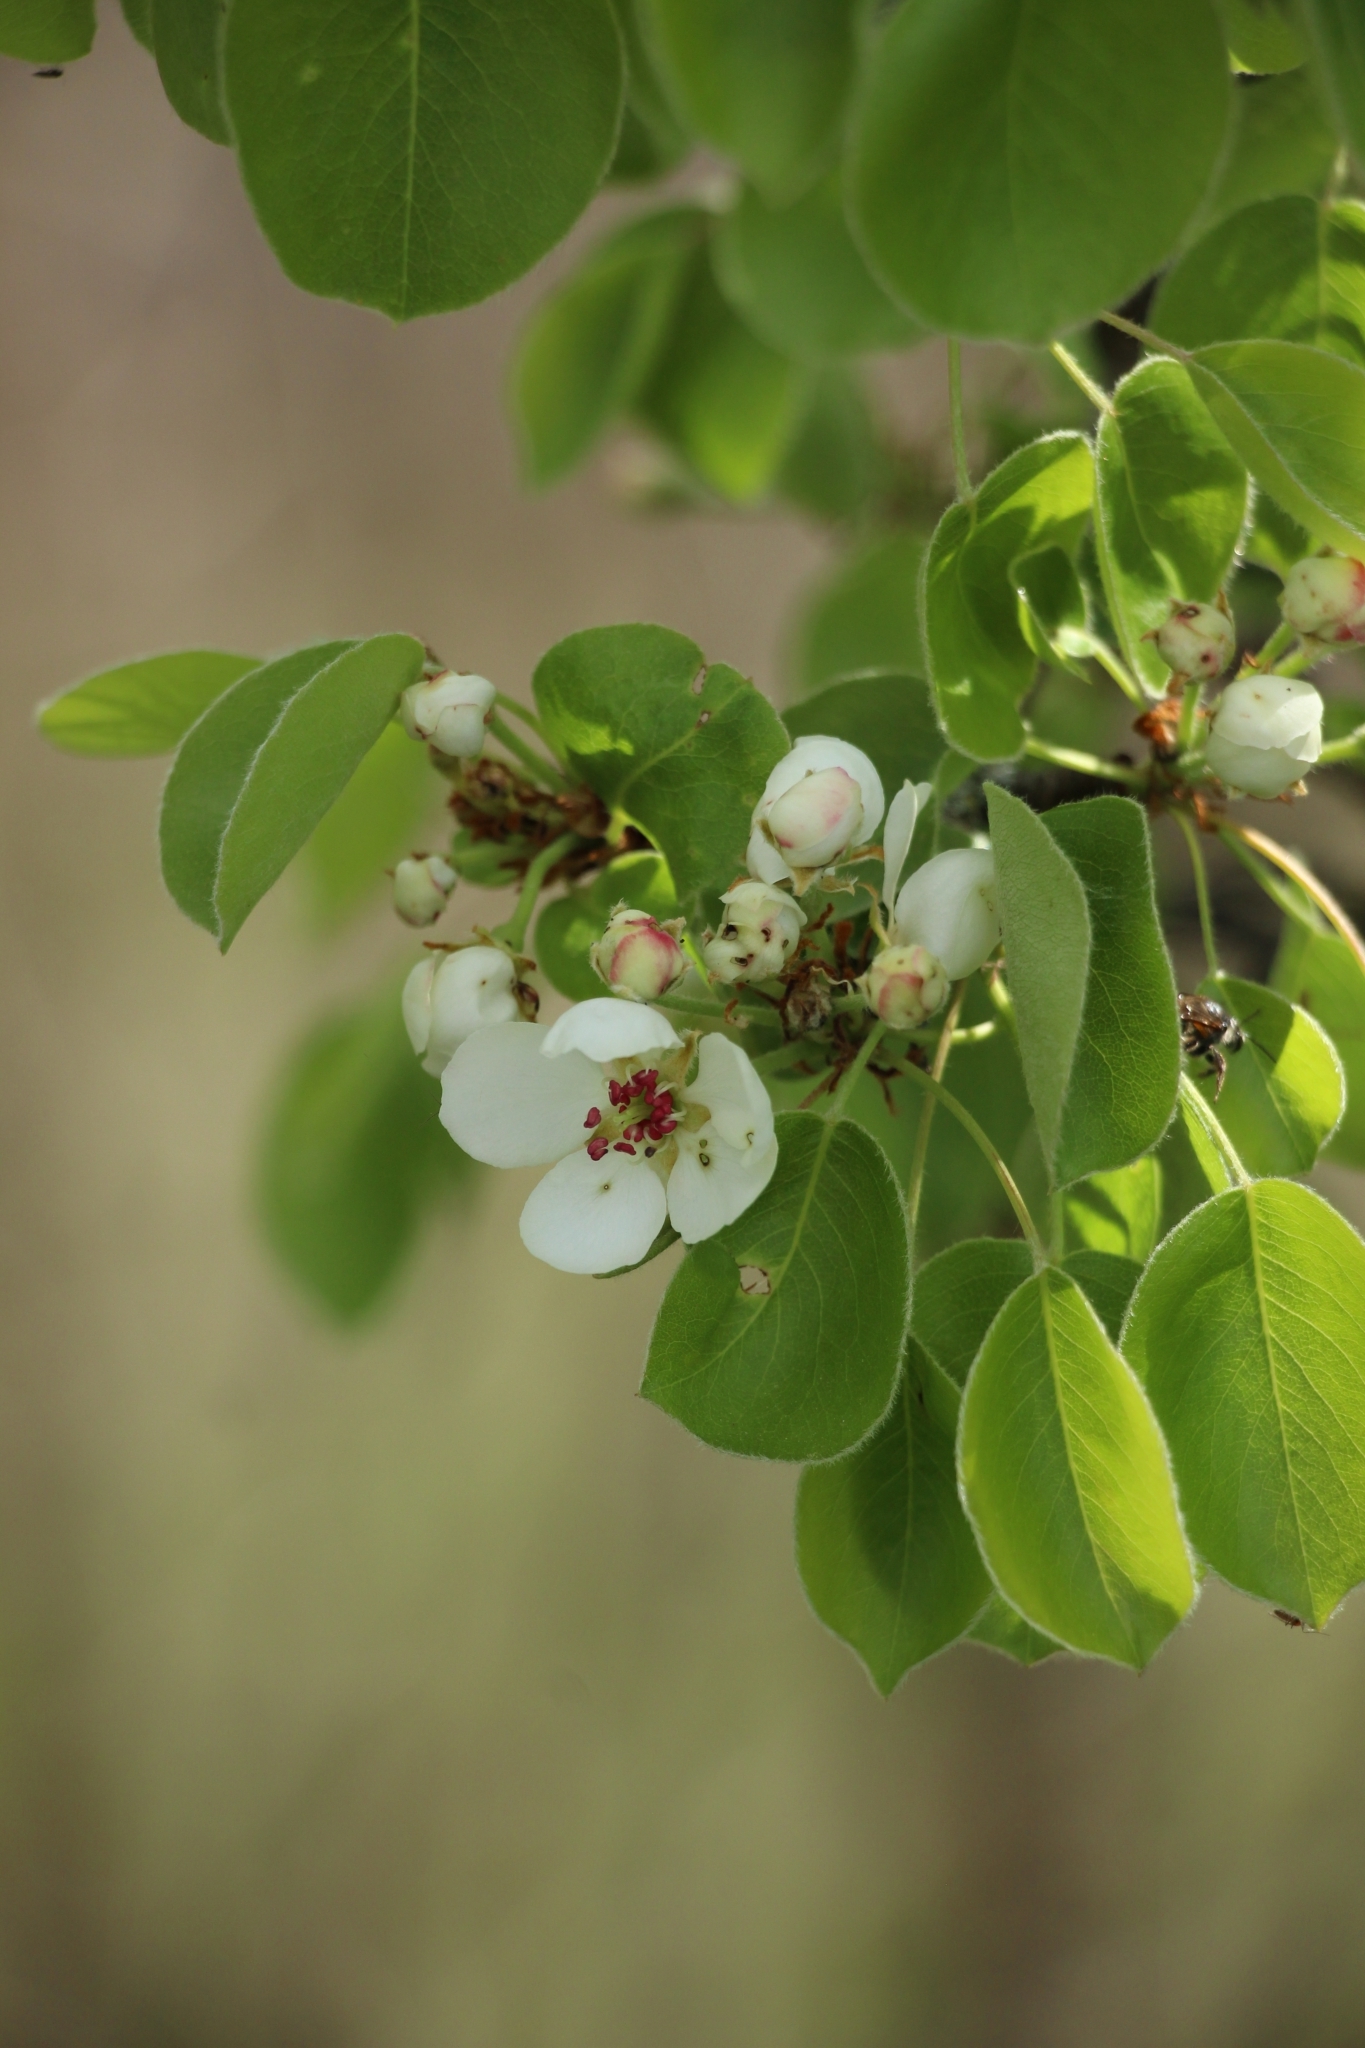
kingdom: Plantae
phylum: Tracheophyta
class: Magnoliopsida
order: Rosales
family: Rosaceae
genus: Pyrus
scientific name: Pyrus communis
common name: Pear
